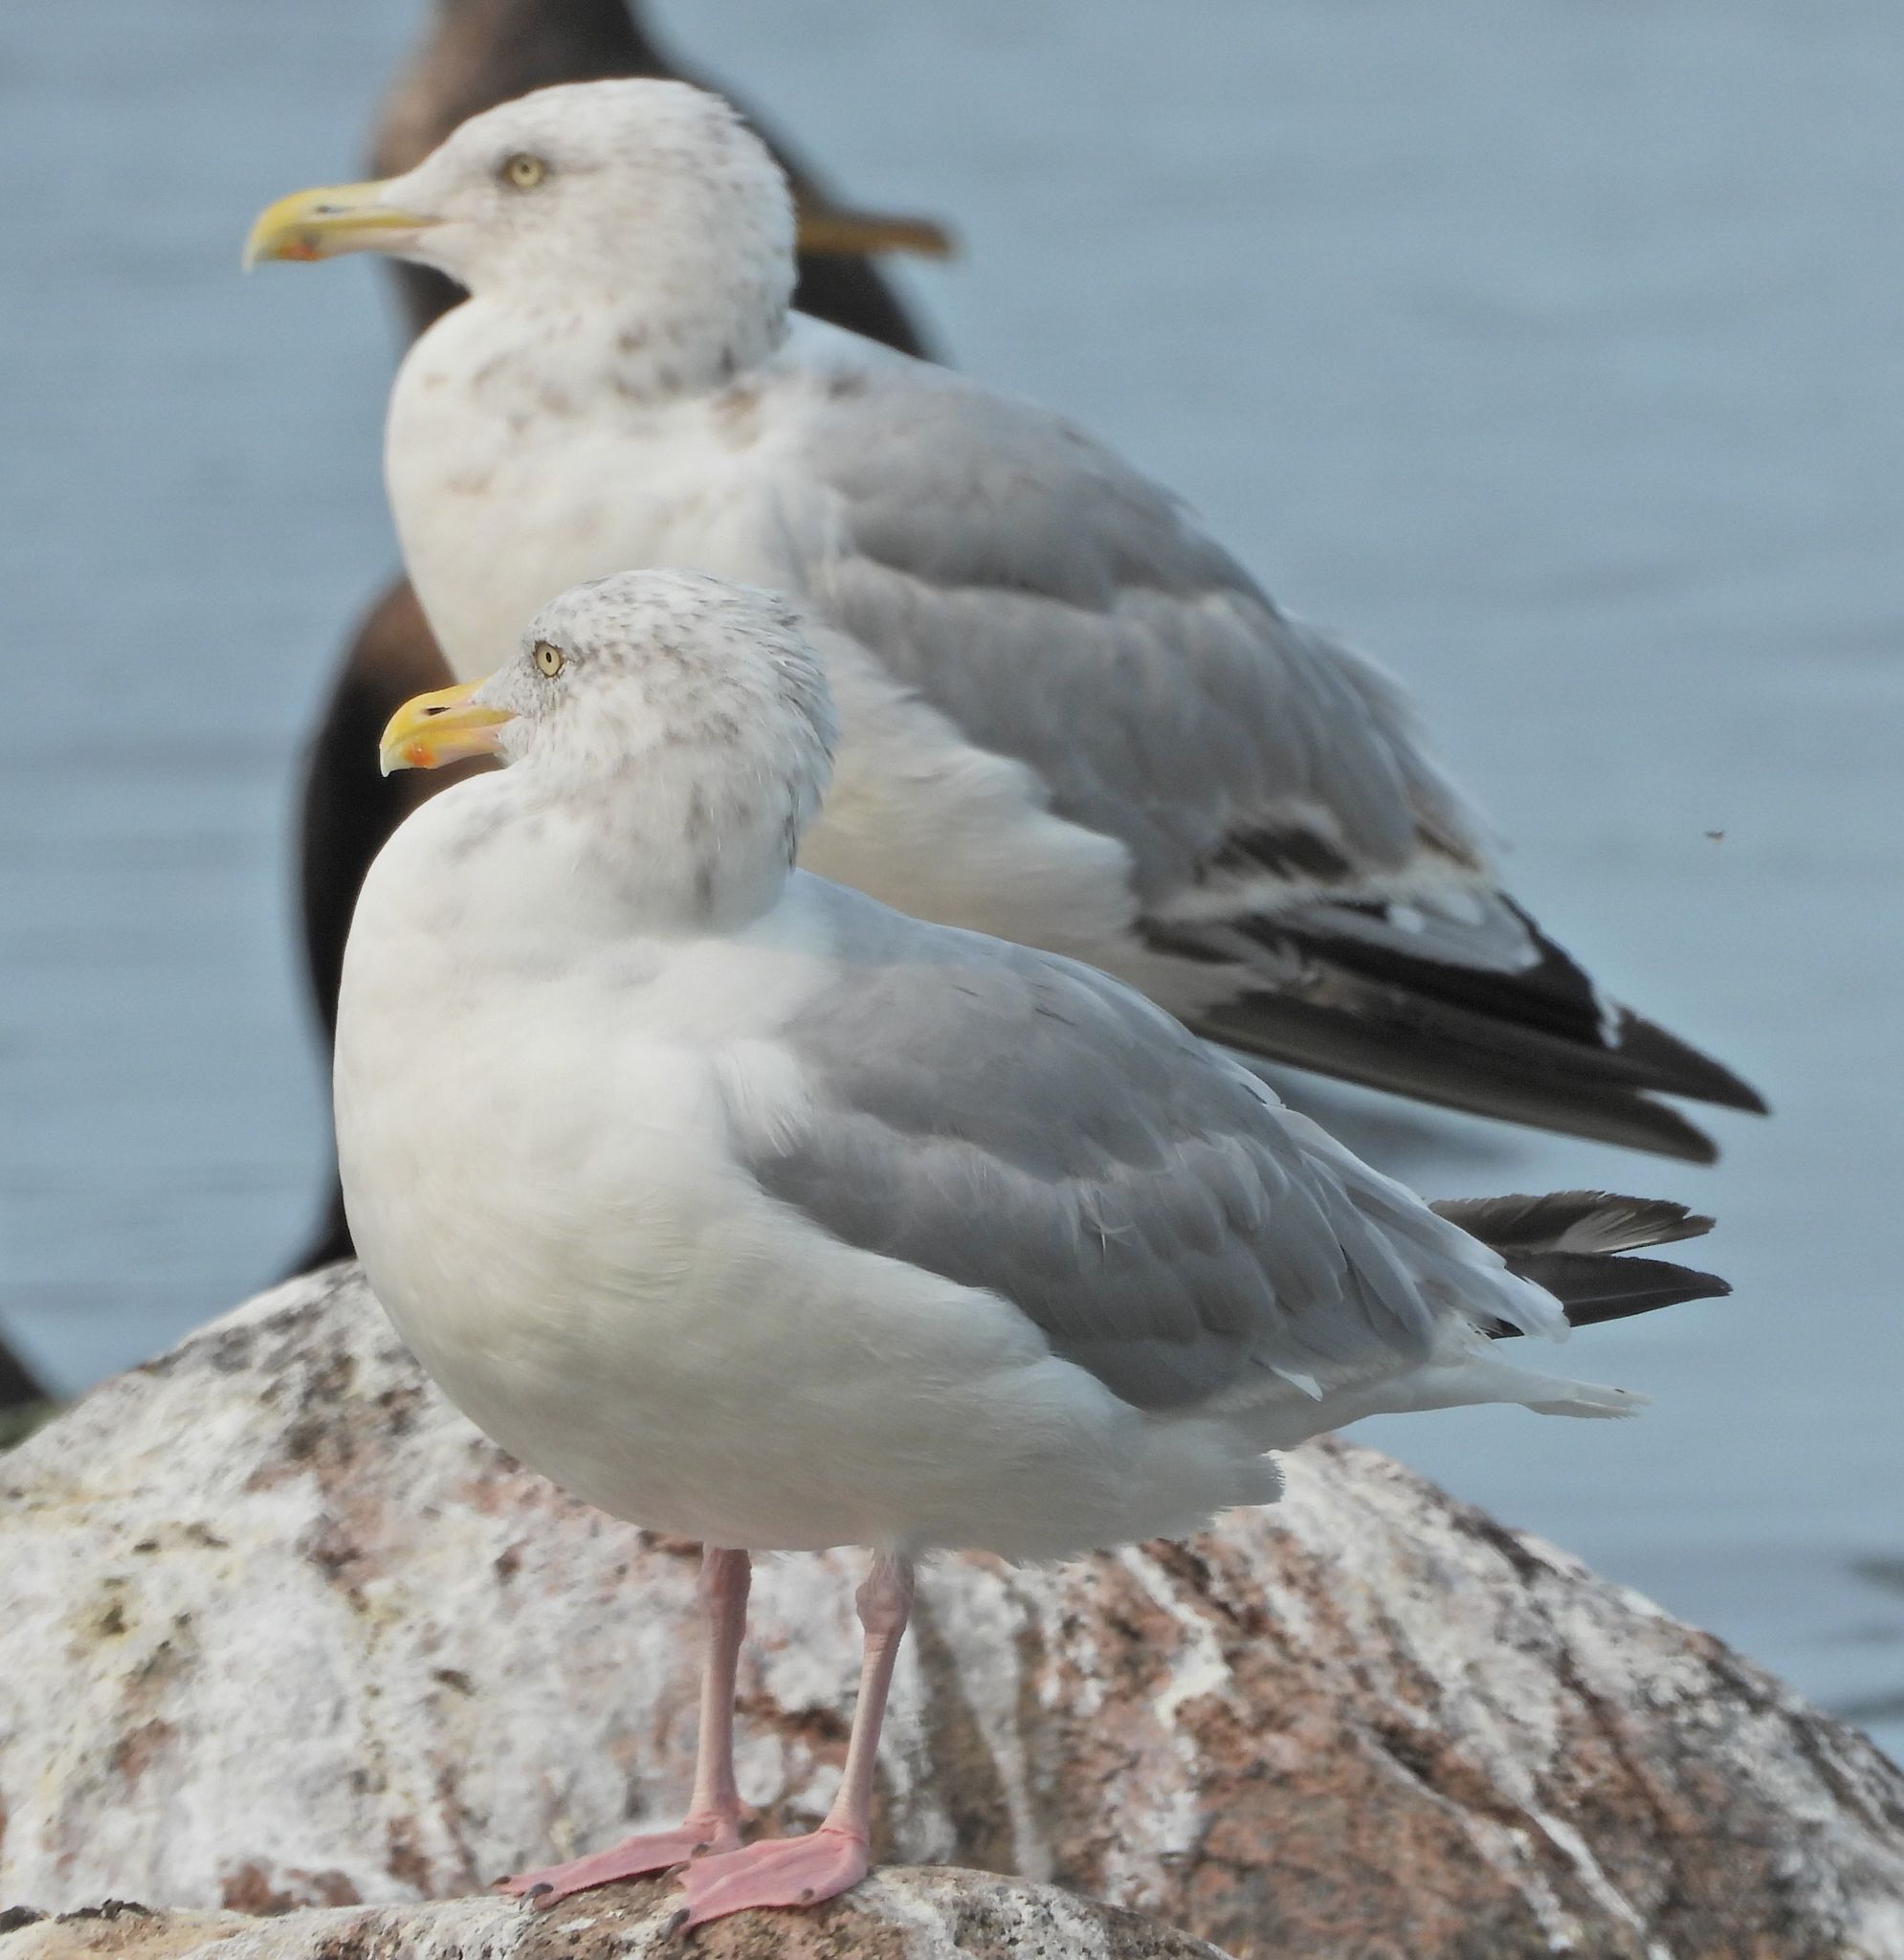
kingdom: Animalia
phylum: Chordata
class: Aves
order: Charadriiformes
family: Laridae
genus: Larus
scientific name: Larus argentatus
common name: Herring gull
